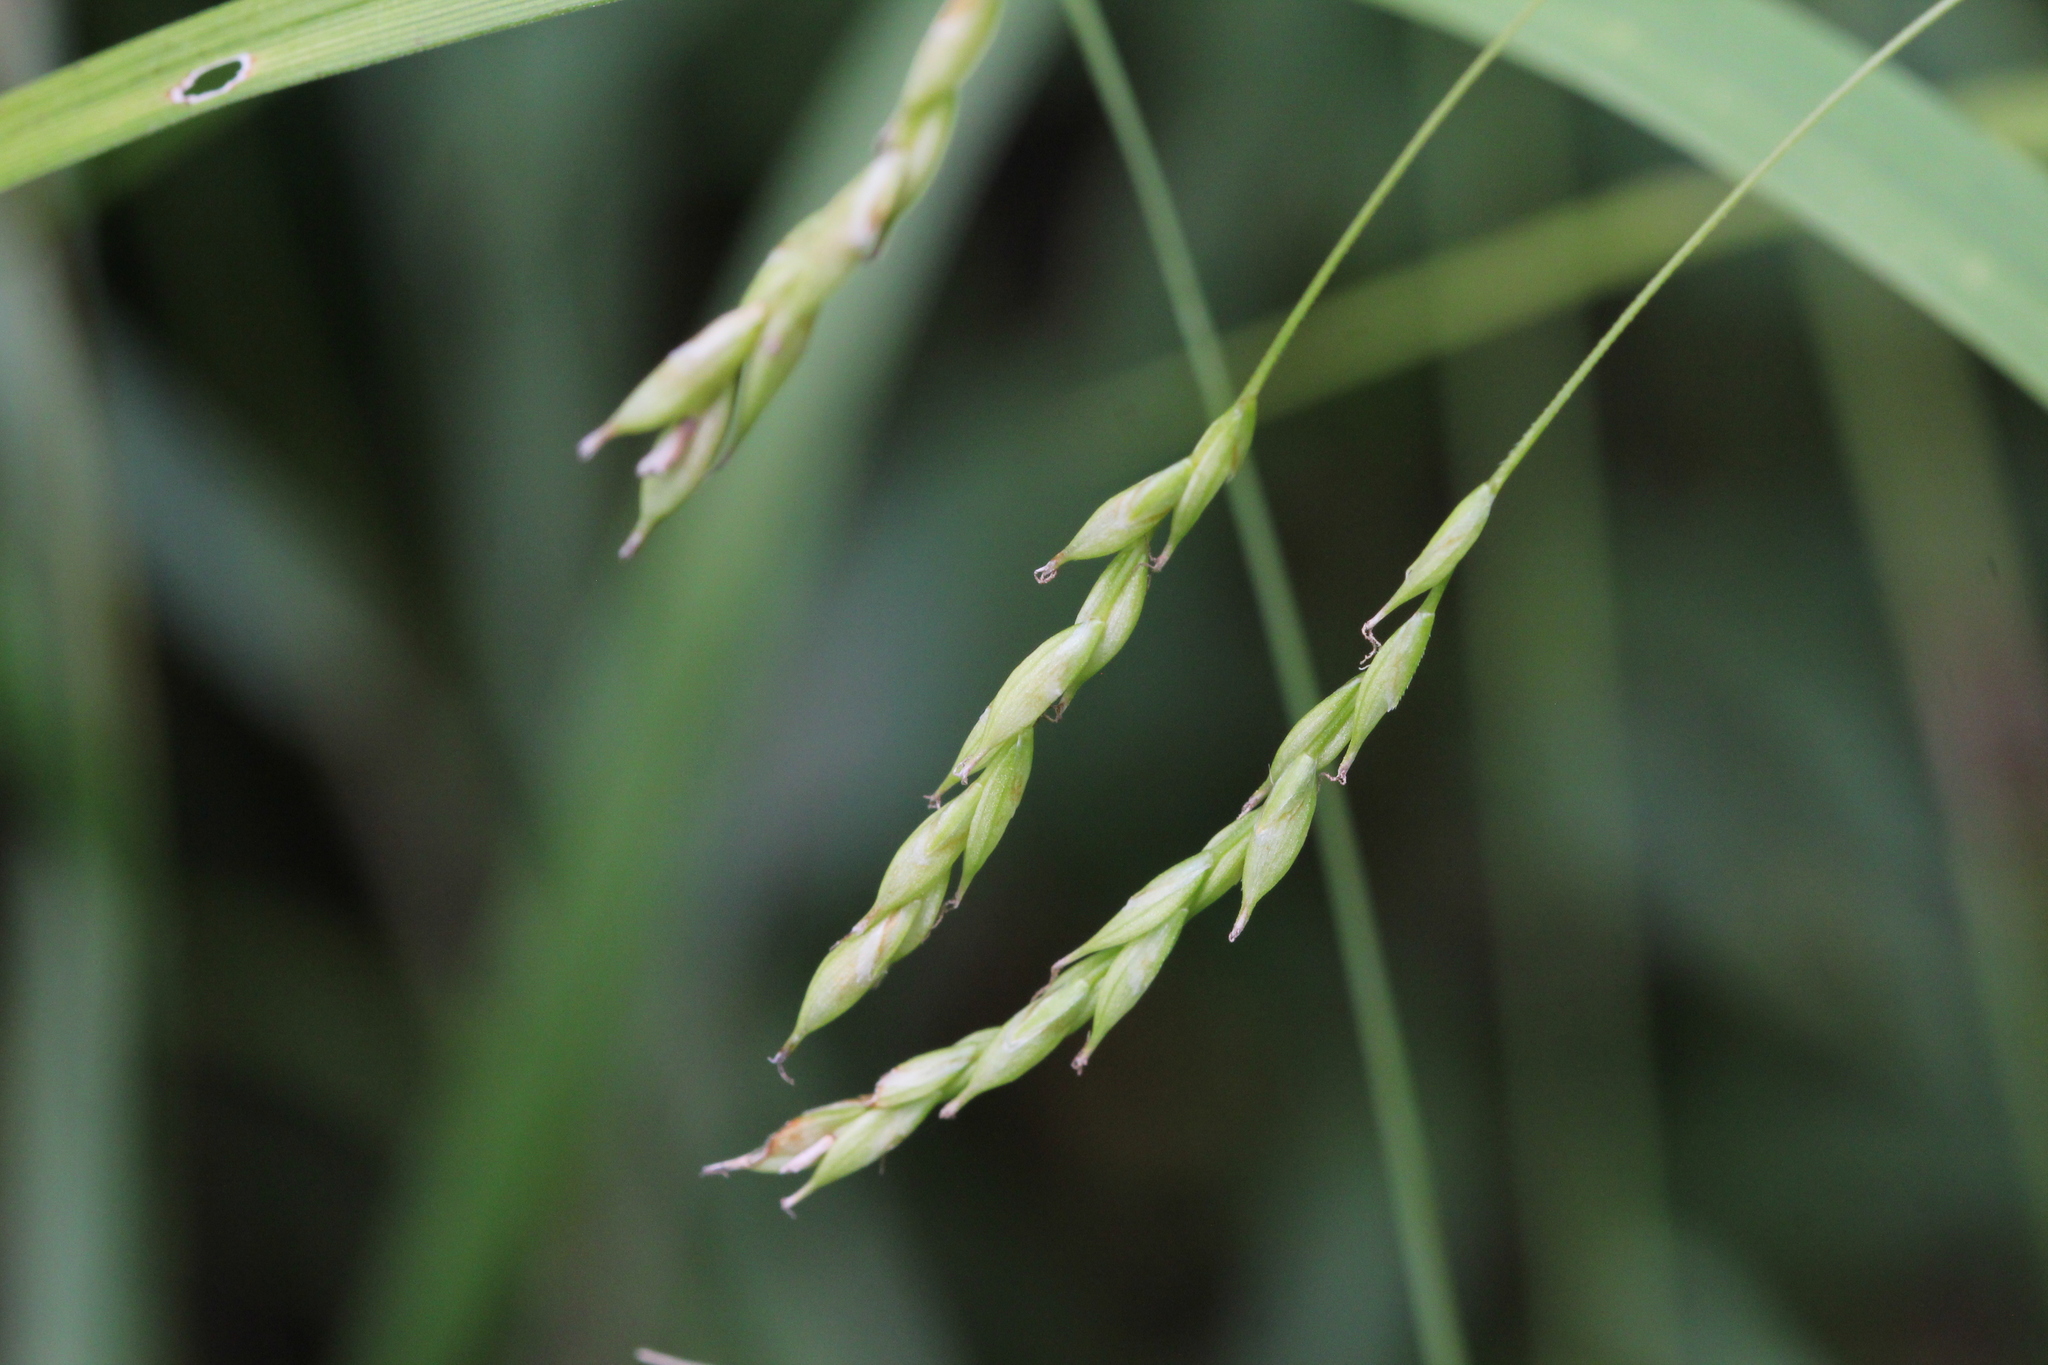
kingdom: Plantae
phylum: Tracheophyta
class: Liliopsida
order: Poales
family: Cyperaceae
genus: Carex
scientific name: Carex debilis
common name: White-edge sedge
